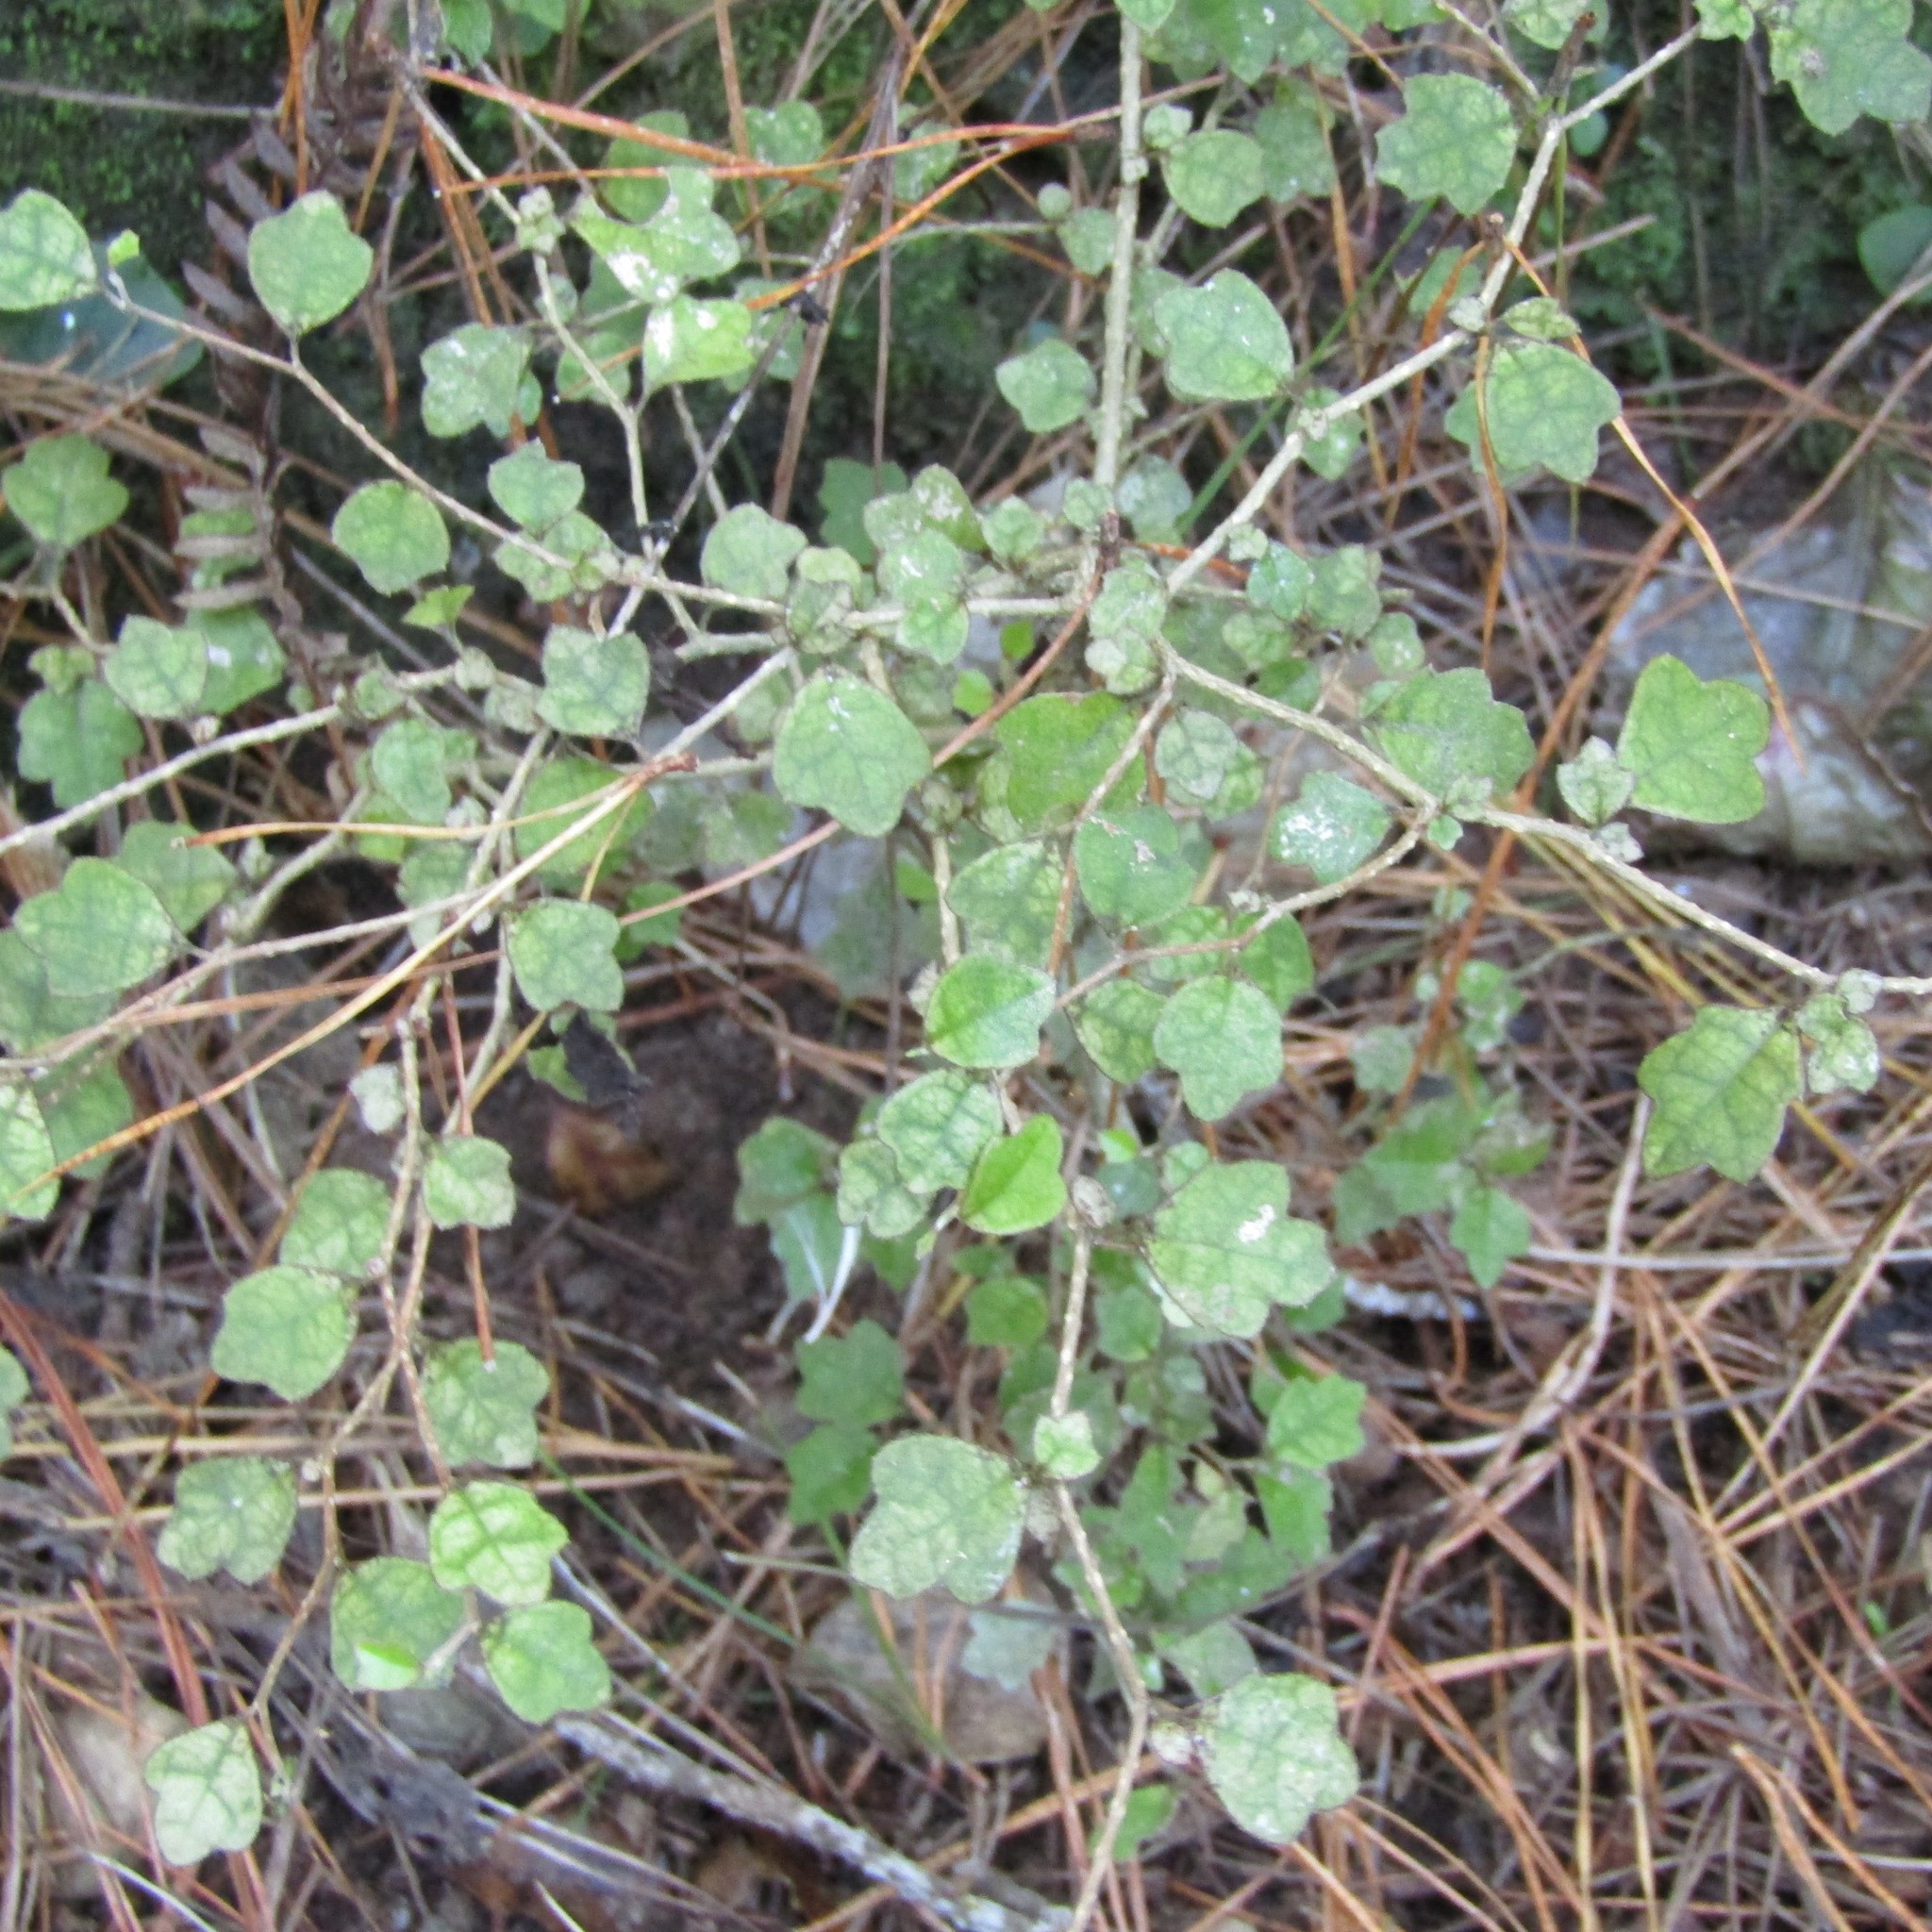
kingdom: Plantae
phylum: Tracheophyta
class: Magnoliopsida
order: Apiales
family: Pennantiaceae
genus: Pennantia
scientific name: Pennantia corymbosa
